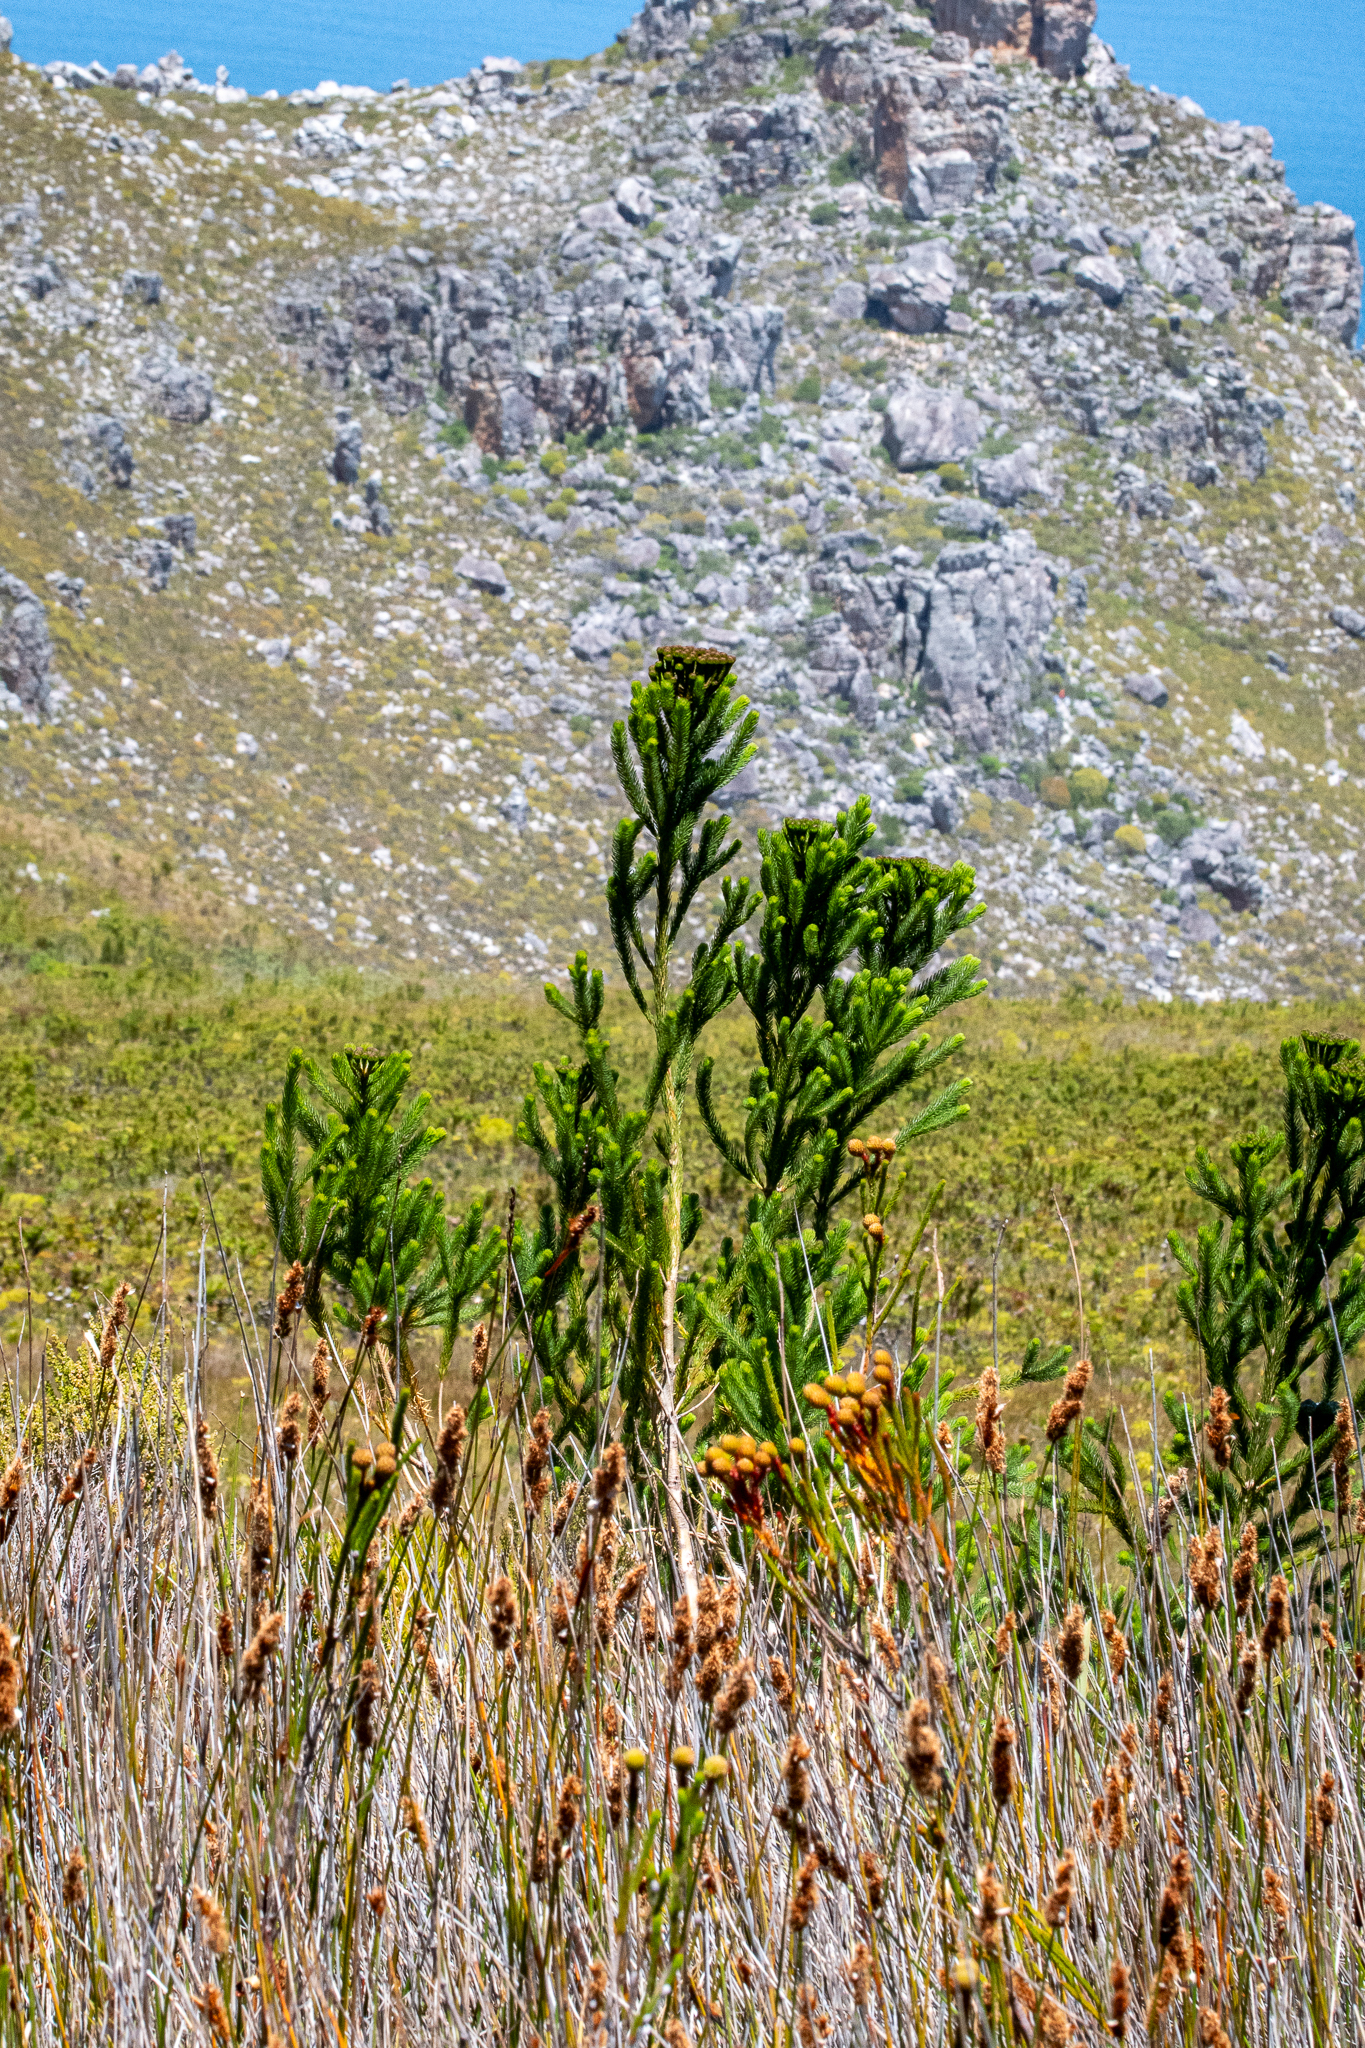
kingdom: Plantae
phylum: Tracheophyta
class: Magnoliopsida
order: Bruniales
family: Bruniaceae
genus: Berzelia
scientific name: Berzelia albiflora
